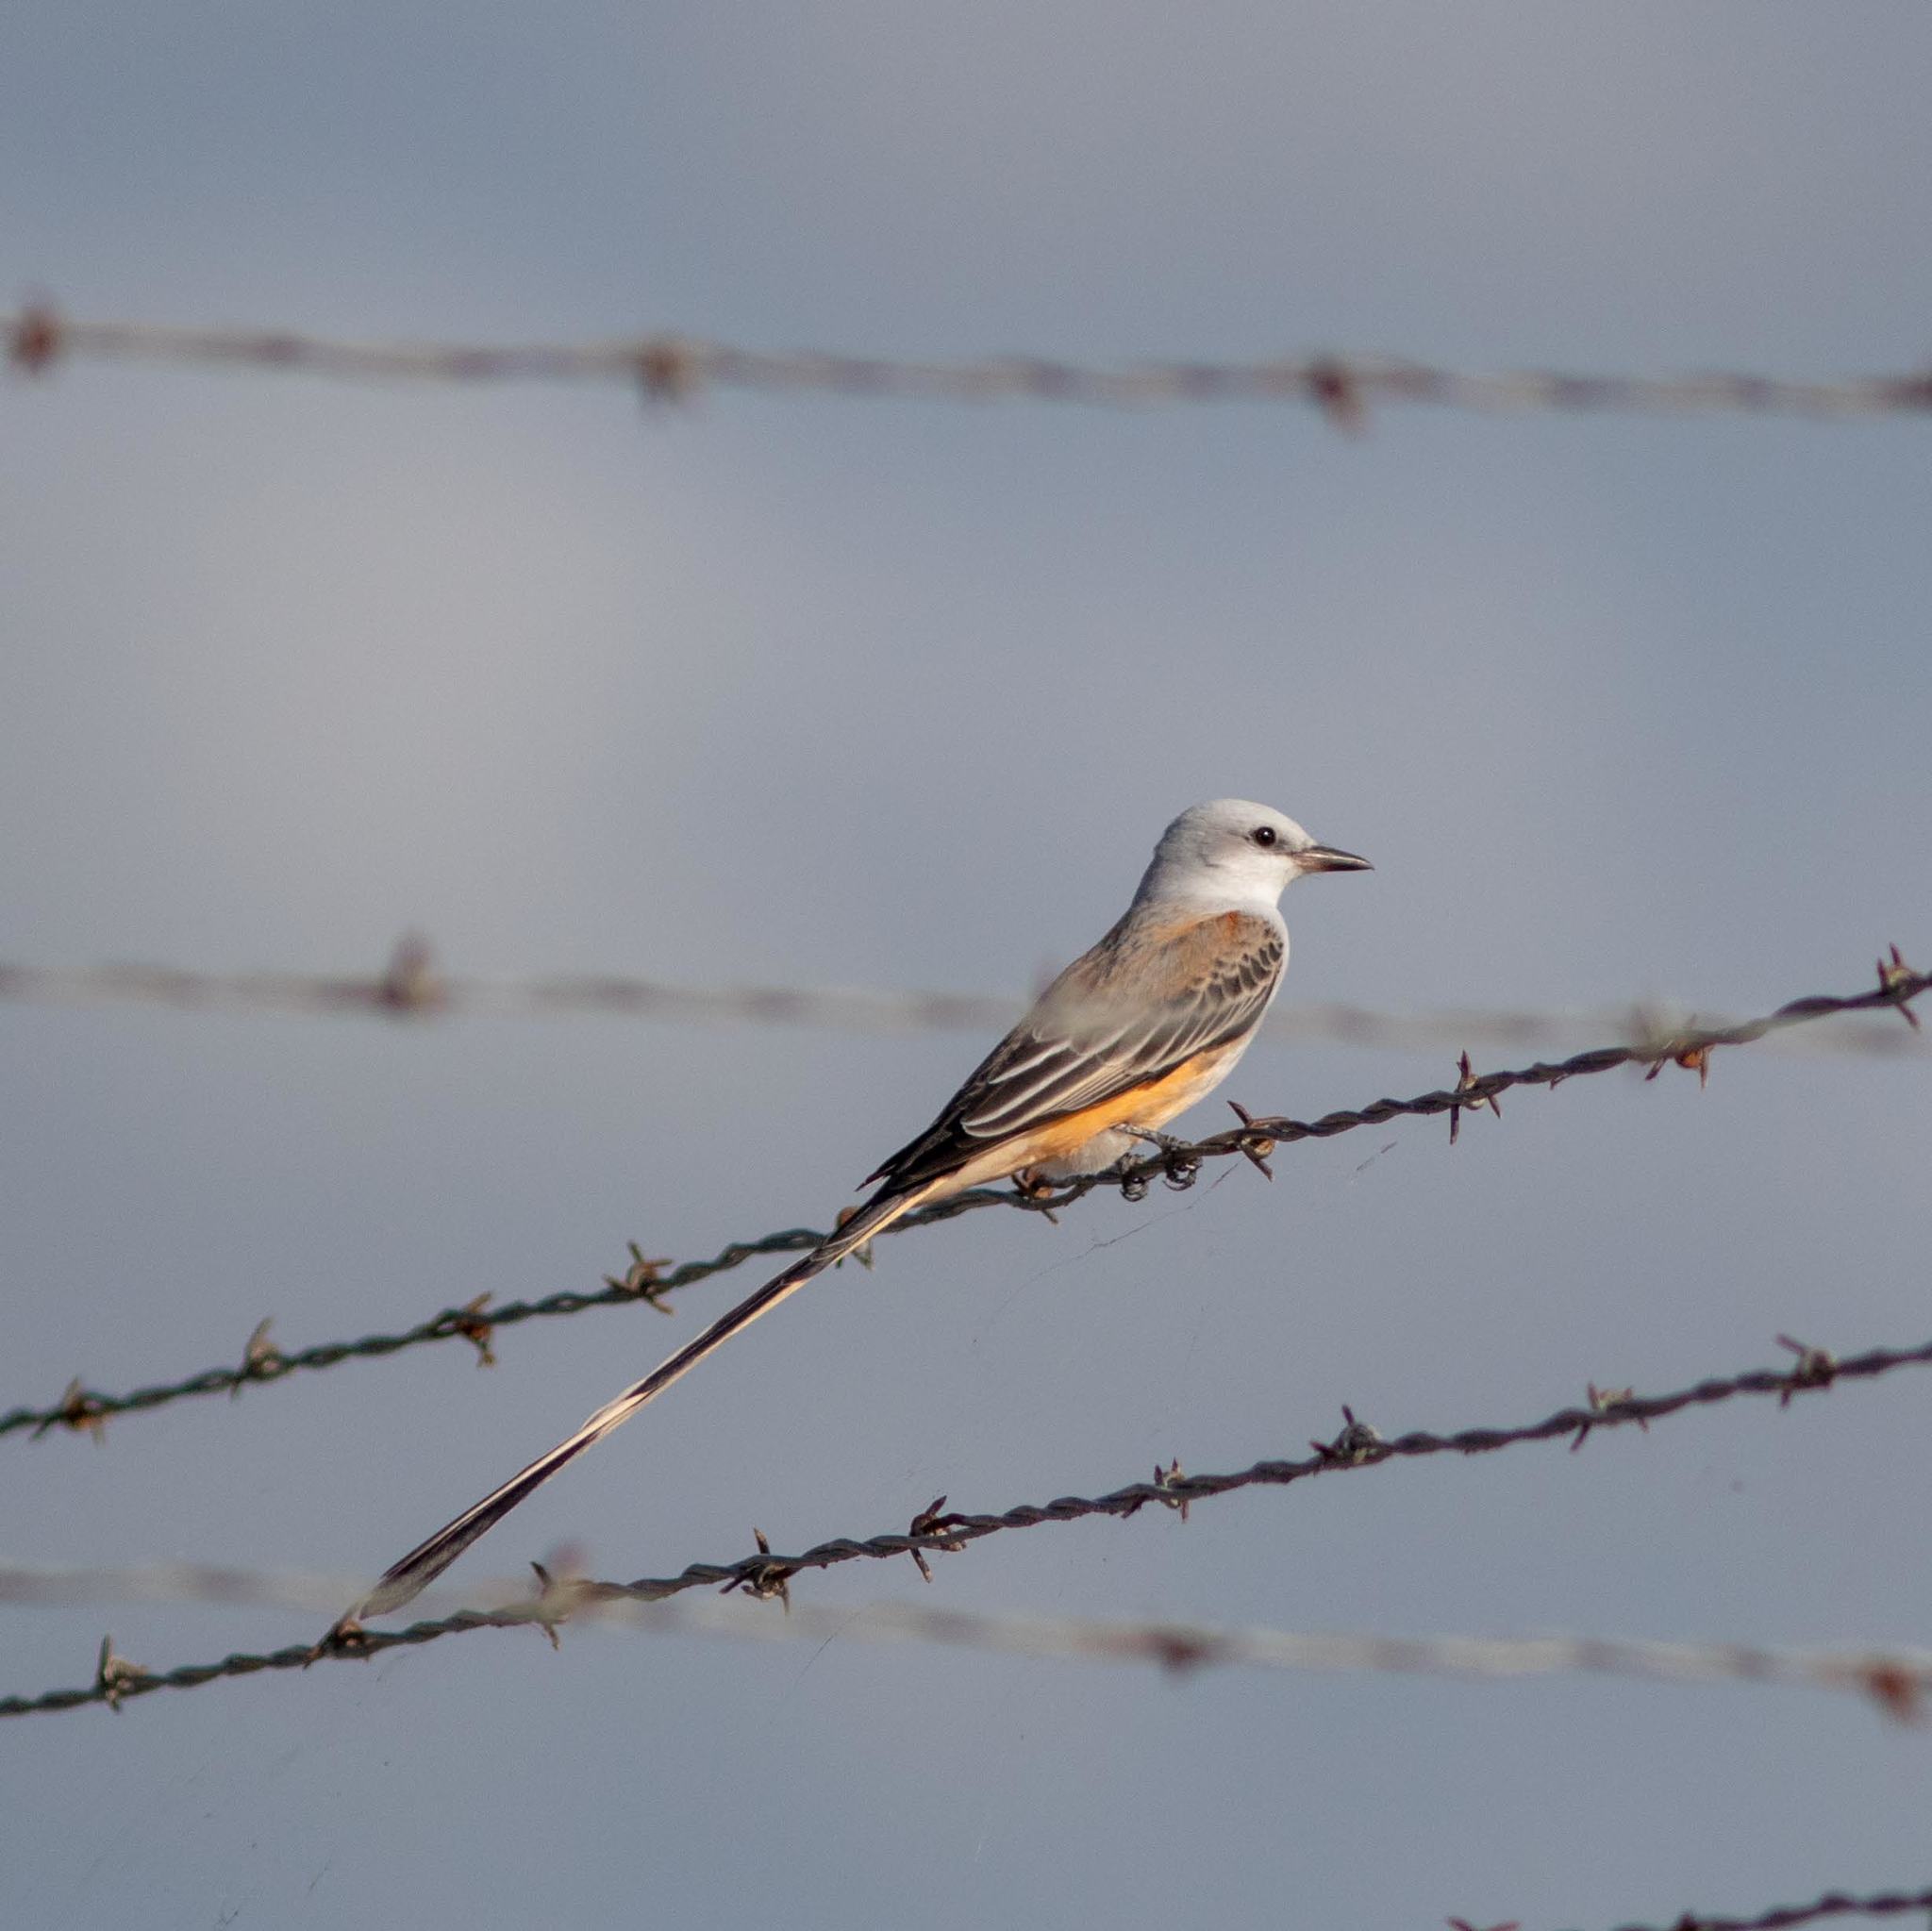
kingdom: Animalia
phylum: Chordata
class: Aves
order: Passeriformes
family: Tyrannidae
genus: Tyrannus
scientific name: Tyrannus forficatus
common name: Scissor-tailed flycatcher
